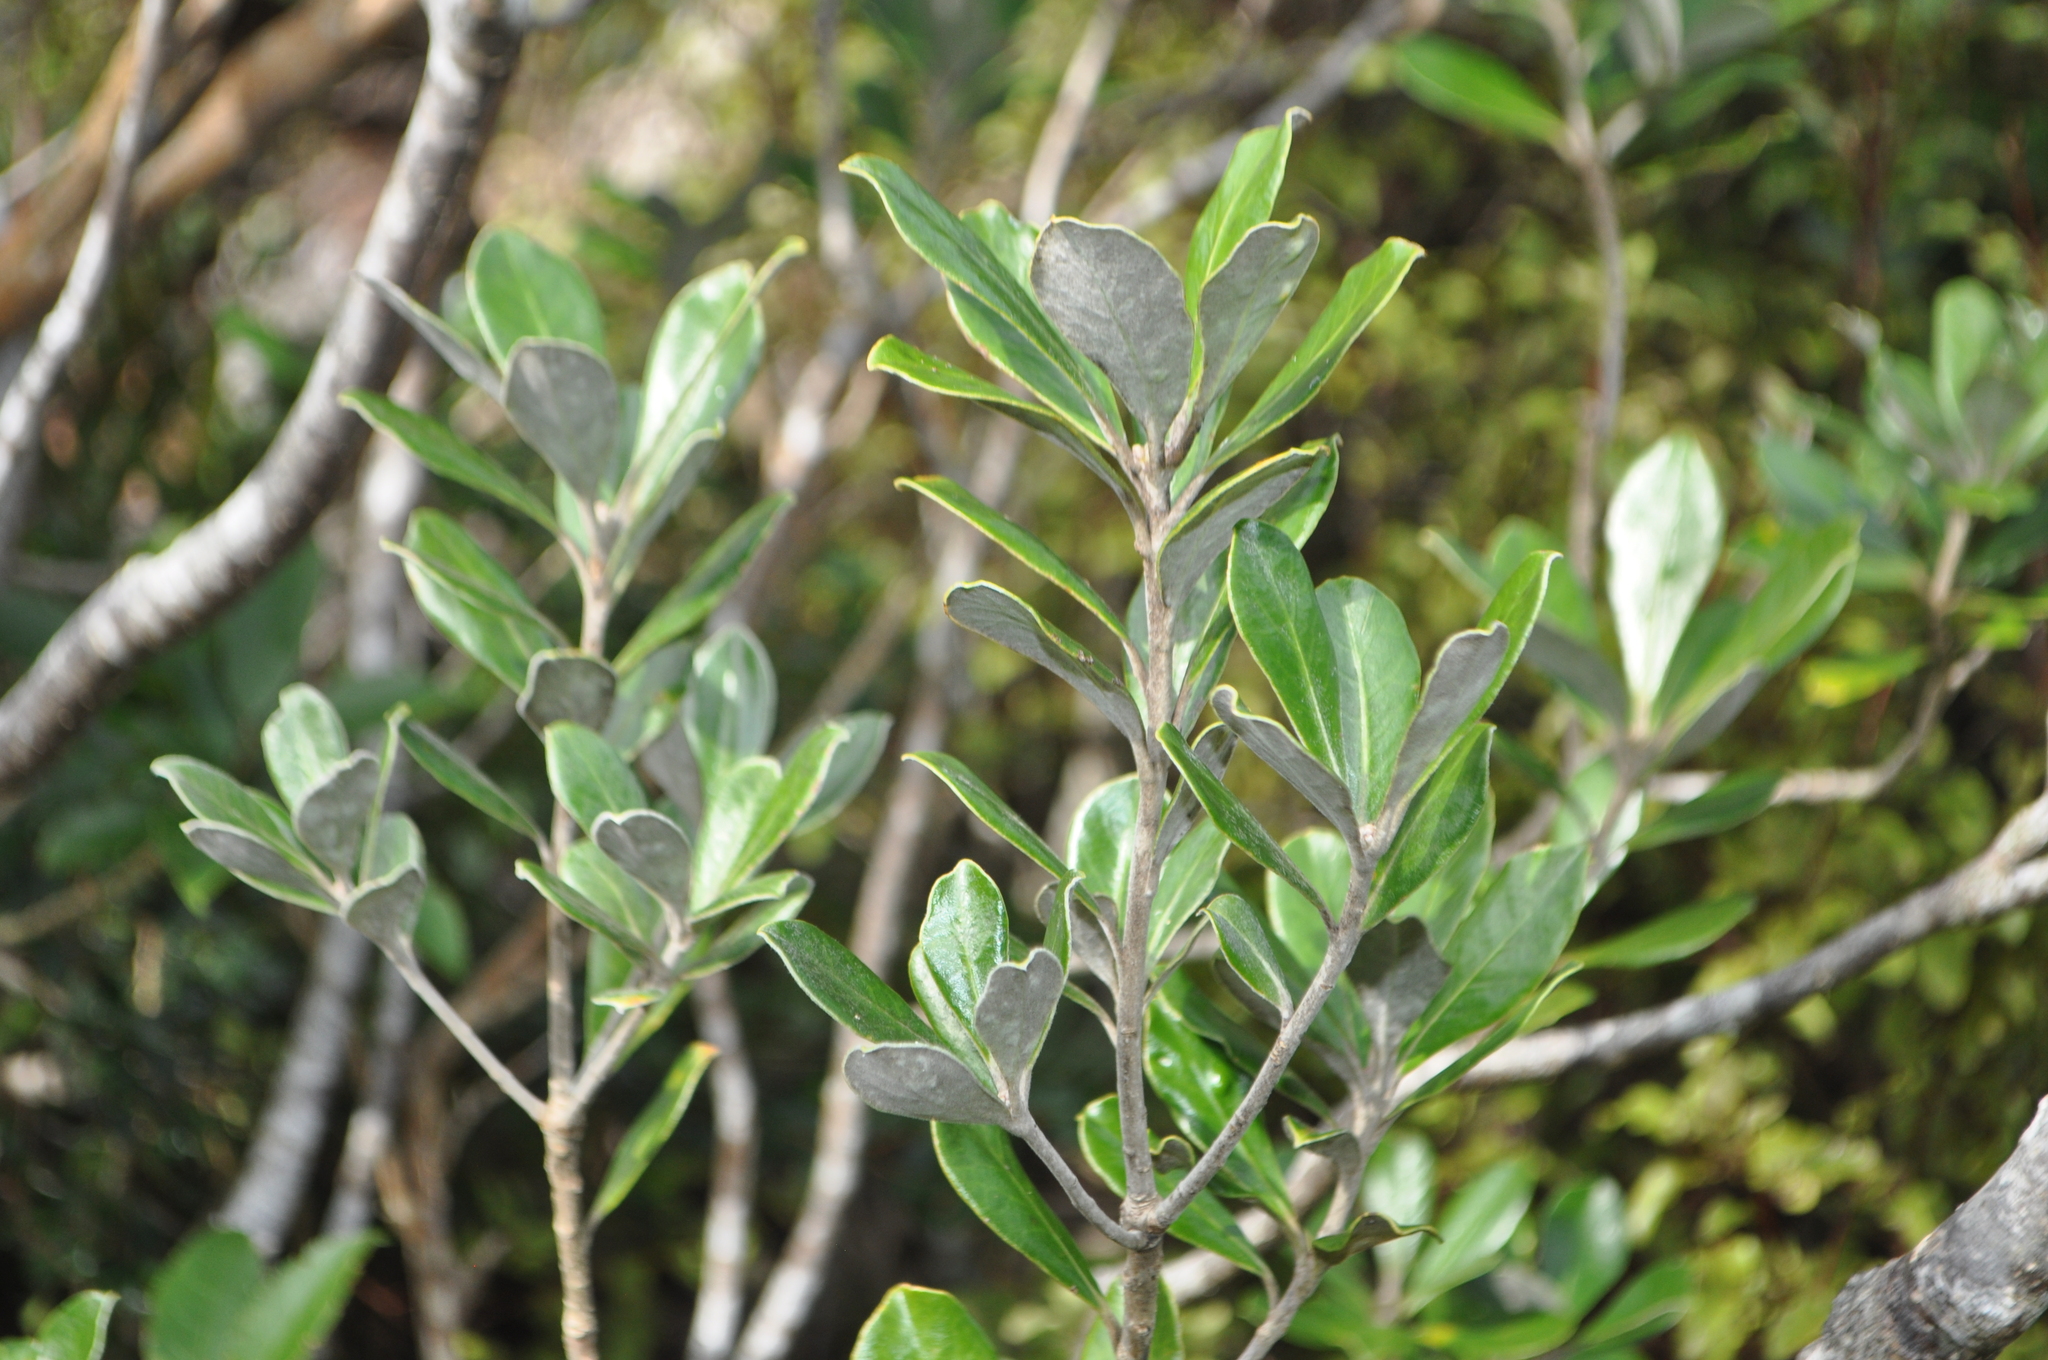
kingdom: Plantae
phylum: Tracheophyta
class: Magnoliopsida
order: Apiales
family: Pittosporaceae
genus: Pittosporum
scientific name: Pittosporum crassifolium
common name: Karo
